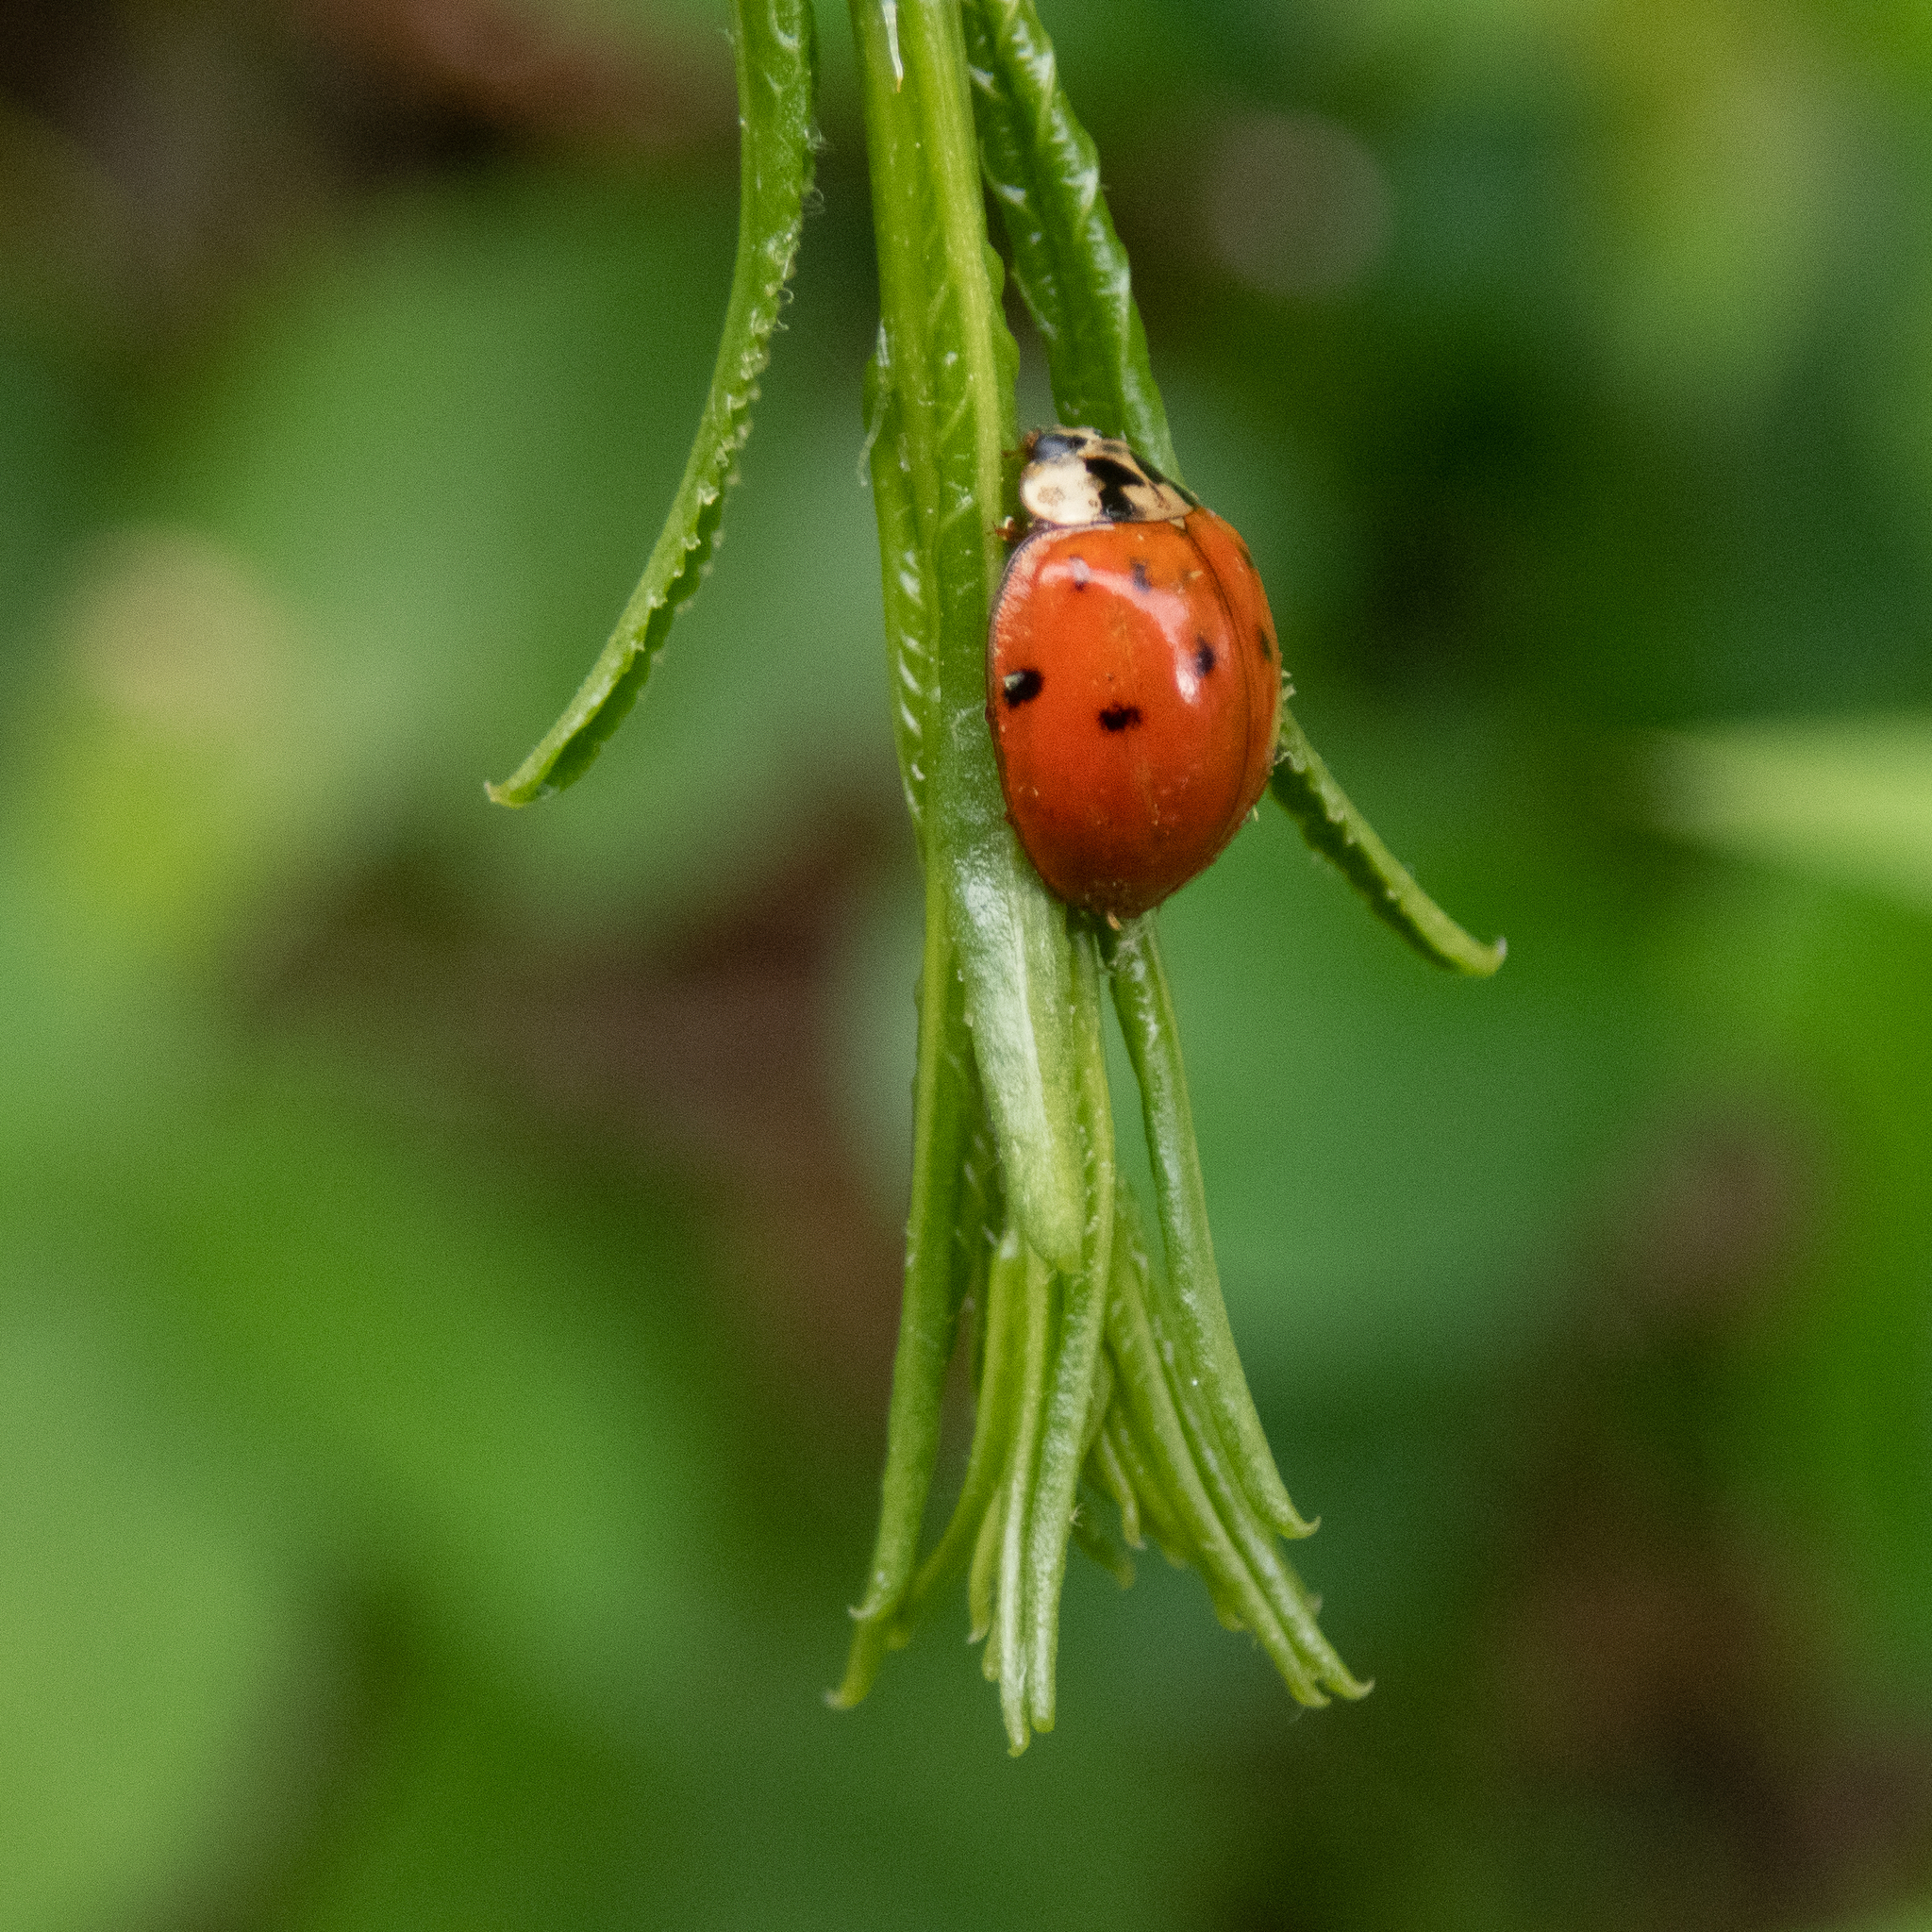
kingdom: Animalia
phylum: Arthropoda
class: Insecta
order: Coleoptera
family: Coccinellidae
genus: Harmonia
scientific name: Harmonia axyridis
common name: Harlequin ladybird
